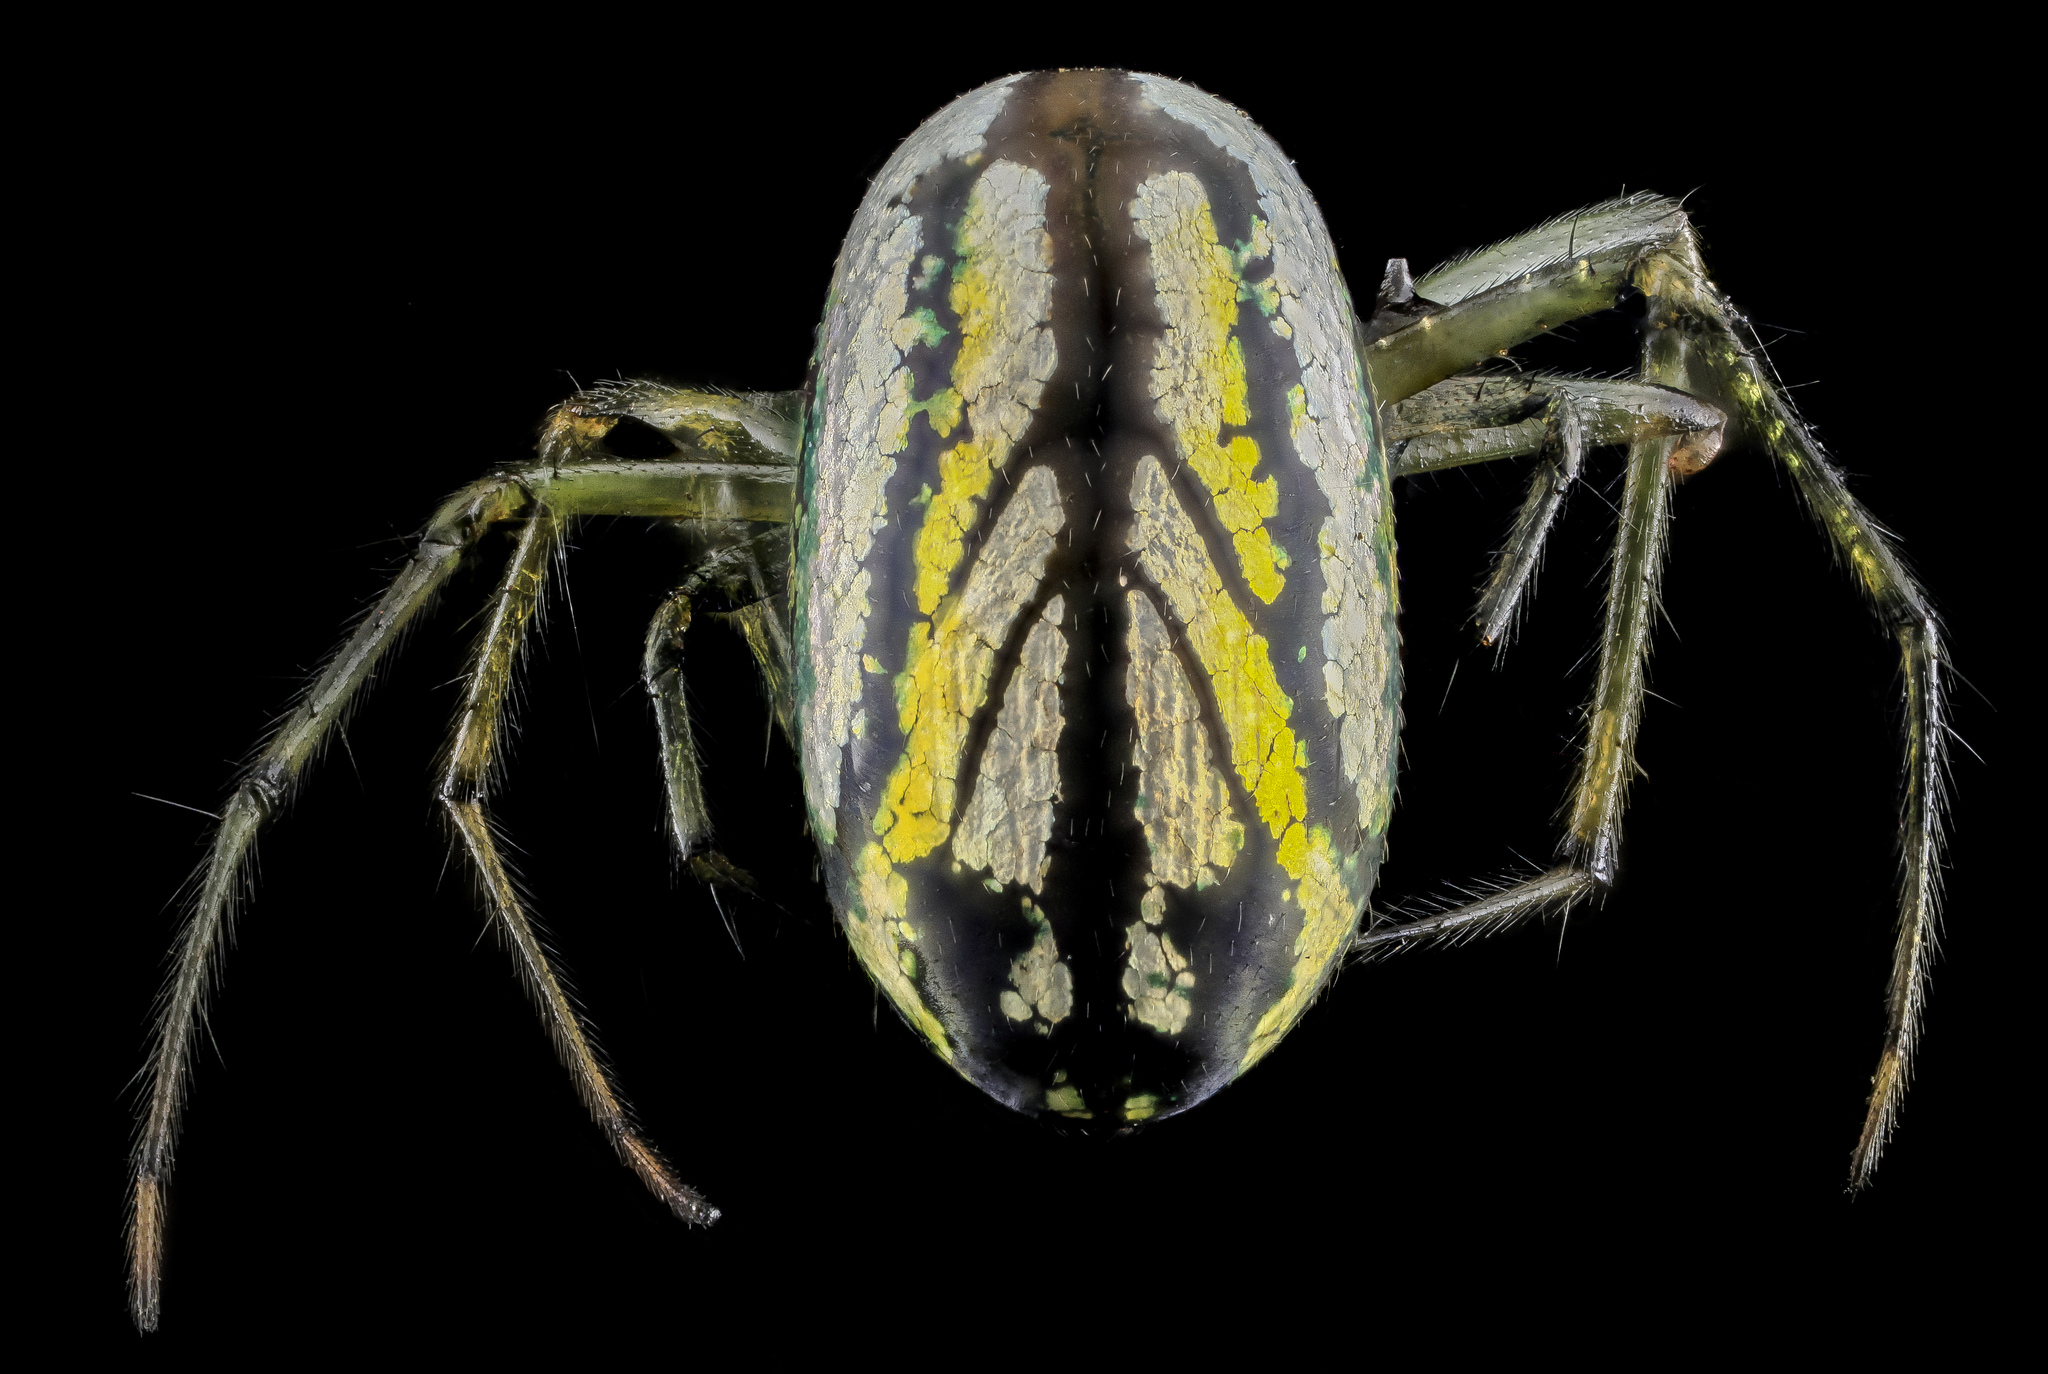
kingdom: Animalia
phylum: Arthropoda
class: Arachnida
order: Araneae
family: Tetragnathidae
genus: Leucauge
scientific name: Leucauge venusta
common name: Longjawed orb weavers
